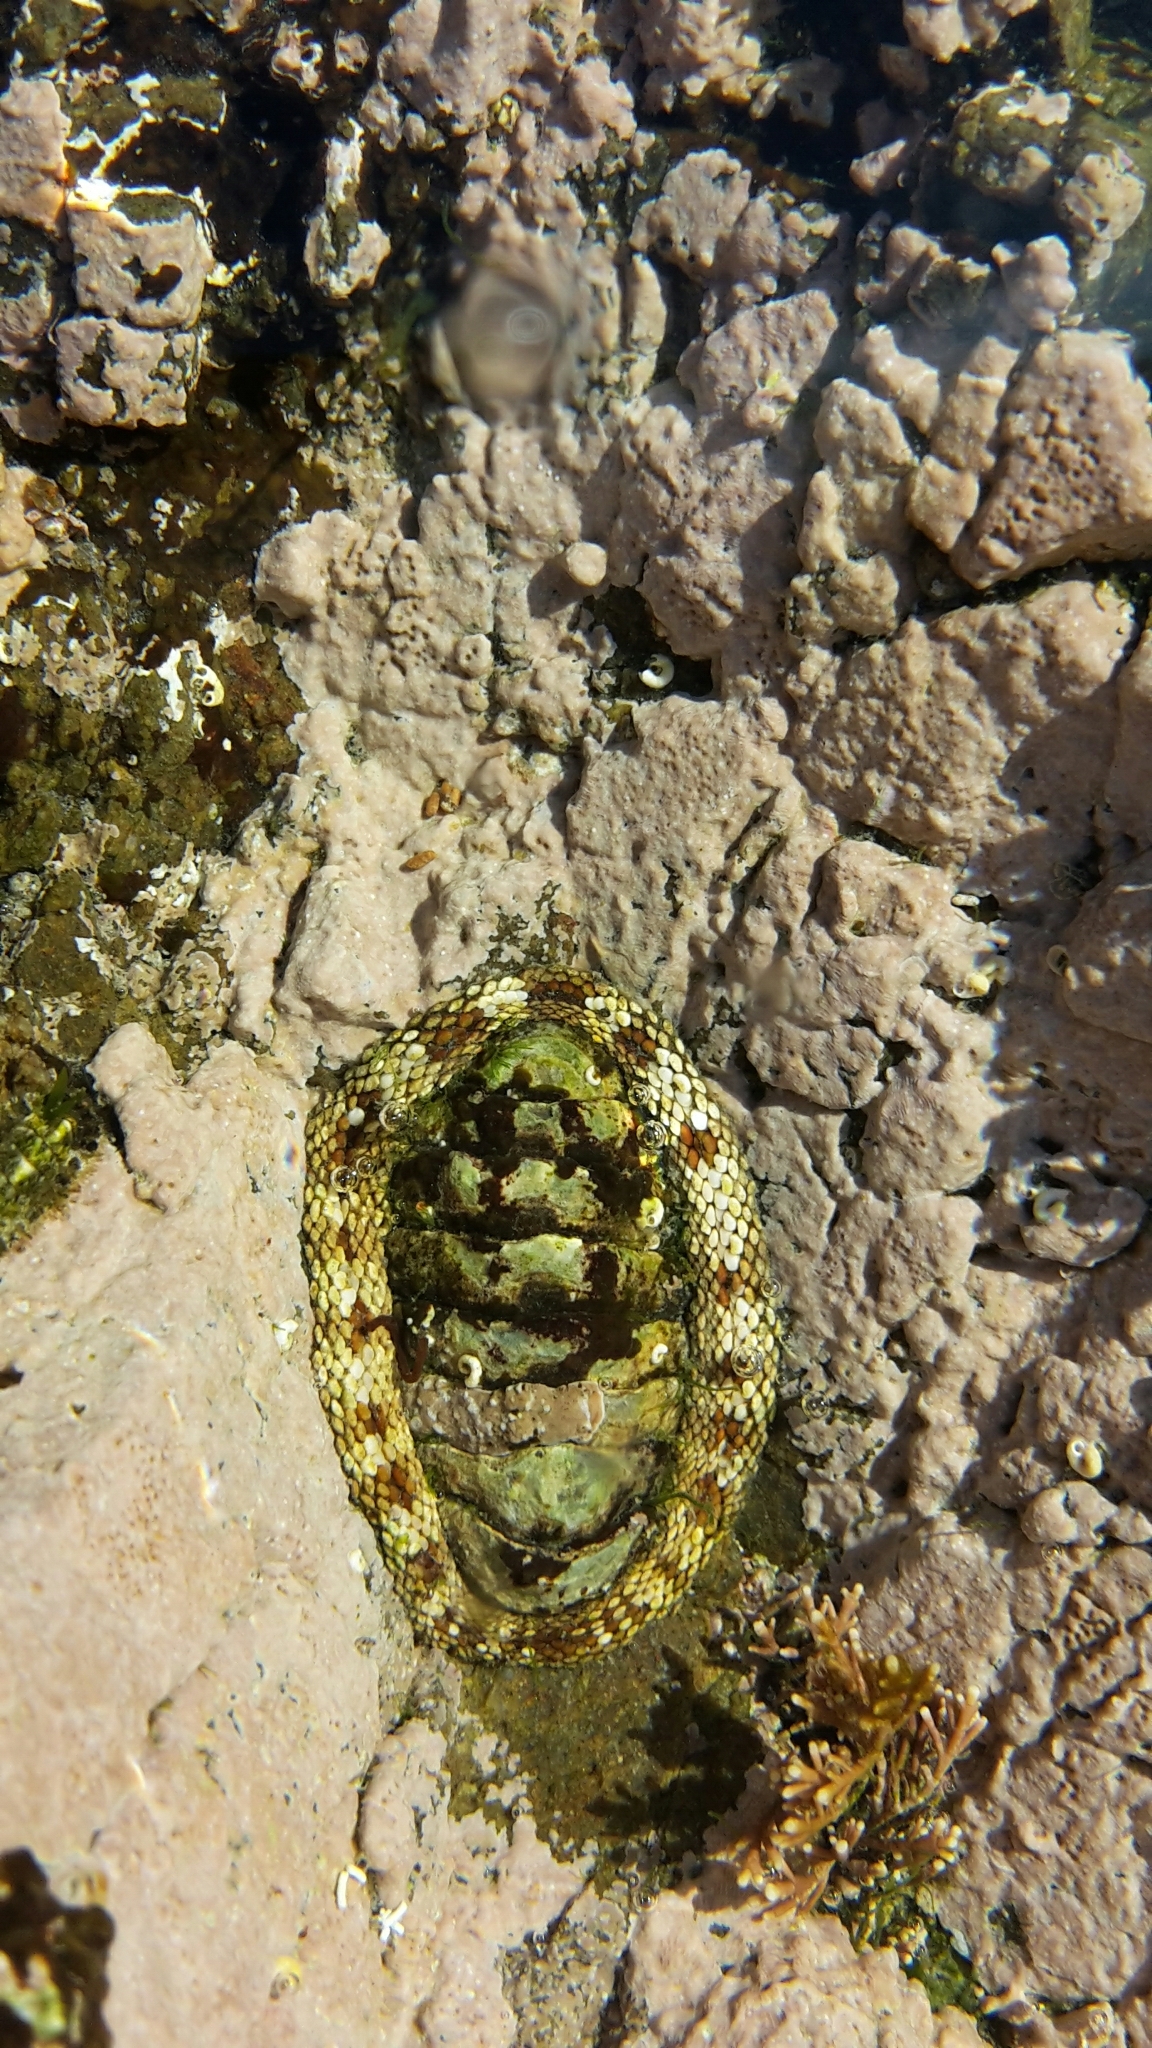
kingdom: Animalia
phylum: Mollusca
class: Polyplacophora
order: Chitonida
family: Chitonidae
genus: Sypharochiton
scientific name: Sypharochiton pelliserpentis
